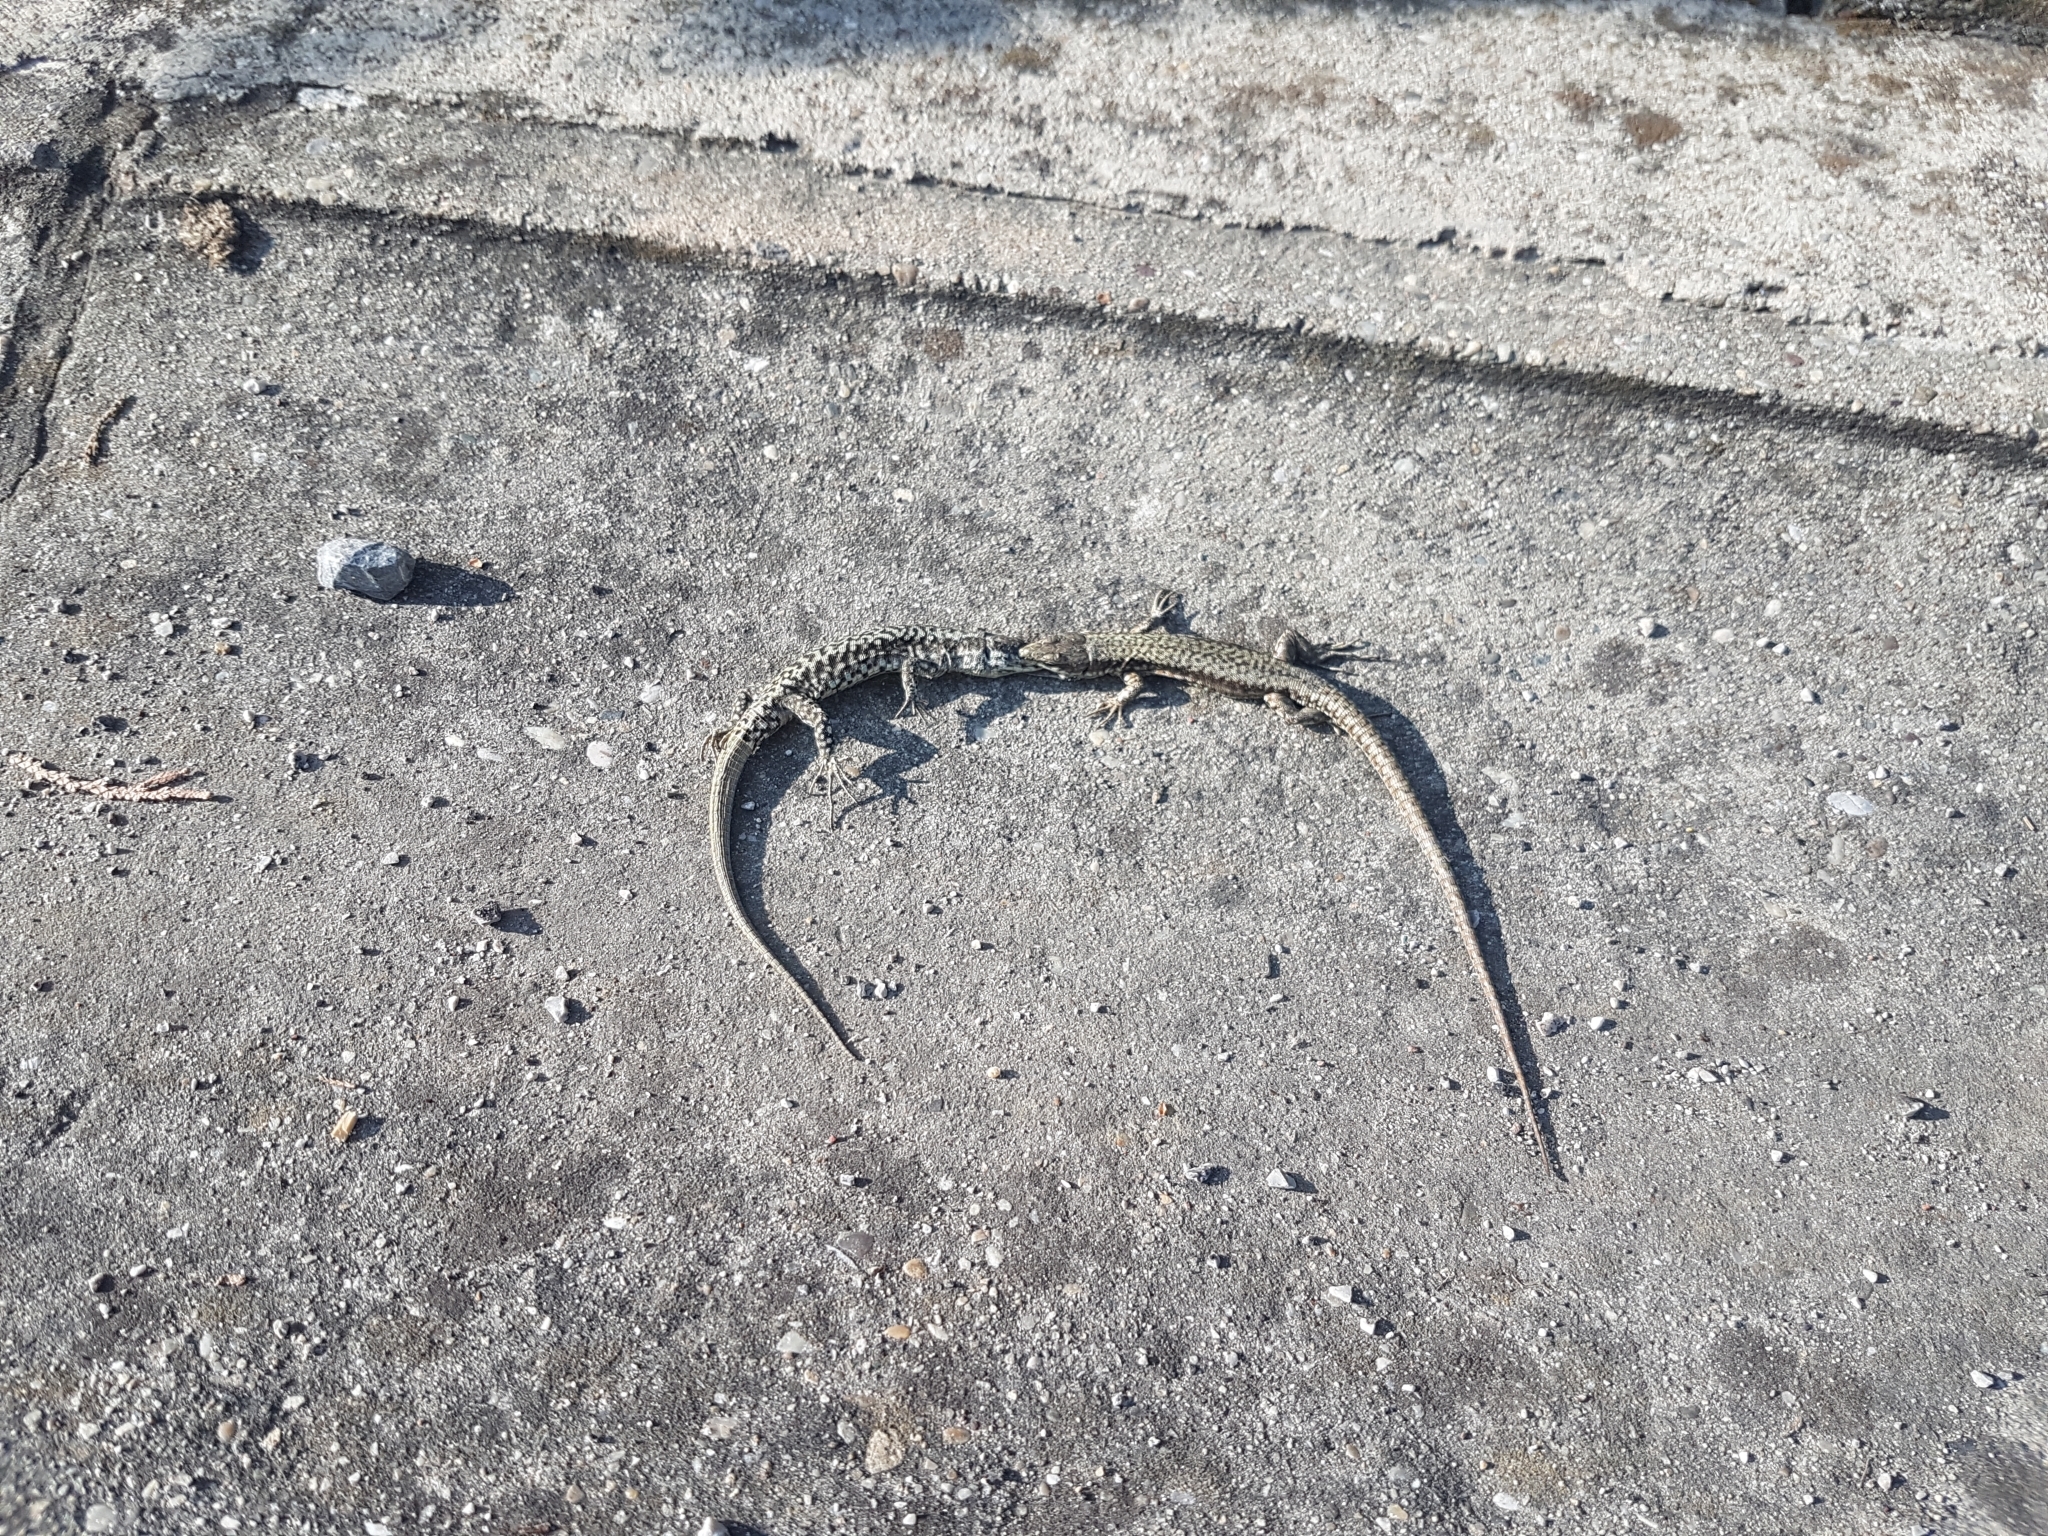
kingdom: Animalia
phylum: Chordata
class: Squamata
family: Lacertidae
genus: Podarcis
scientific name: Podarcis muralis
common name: Common wall lizard
